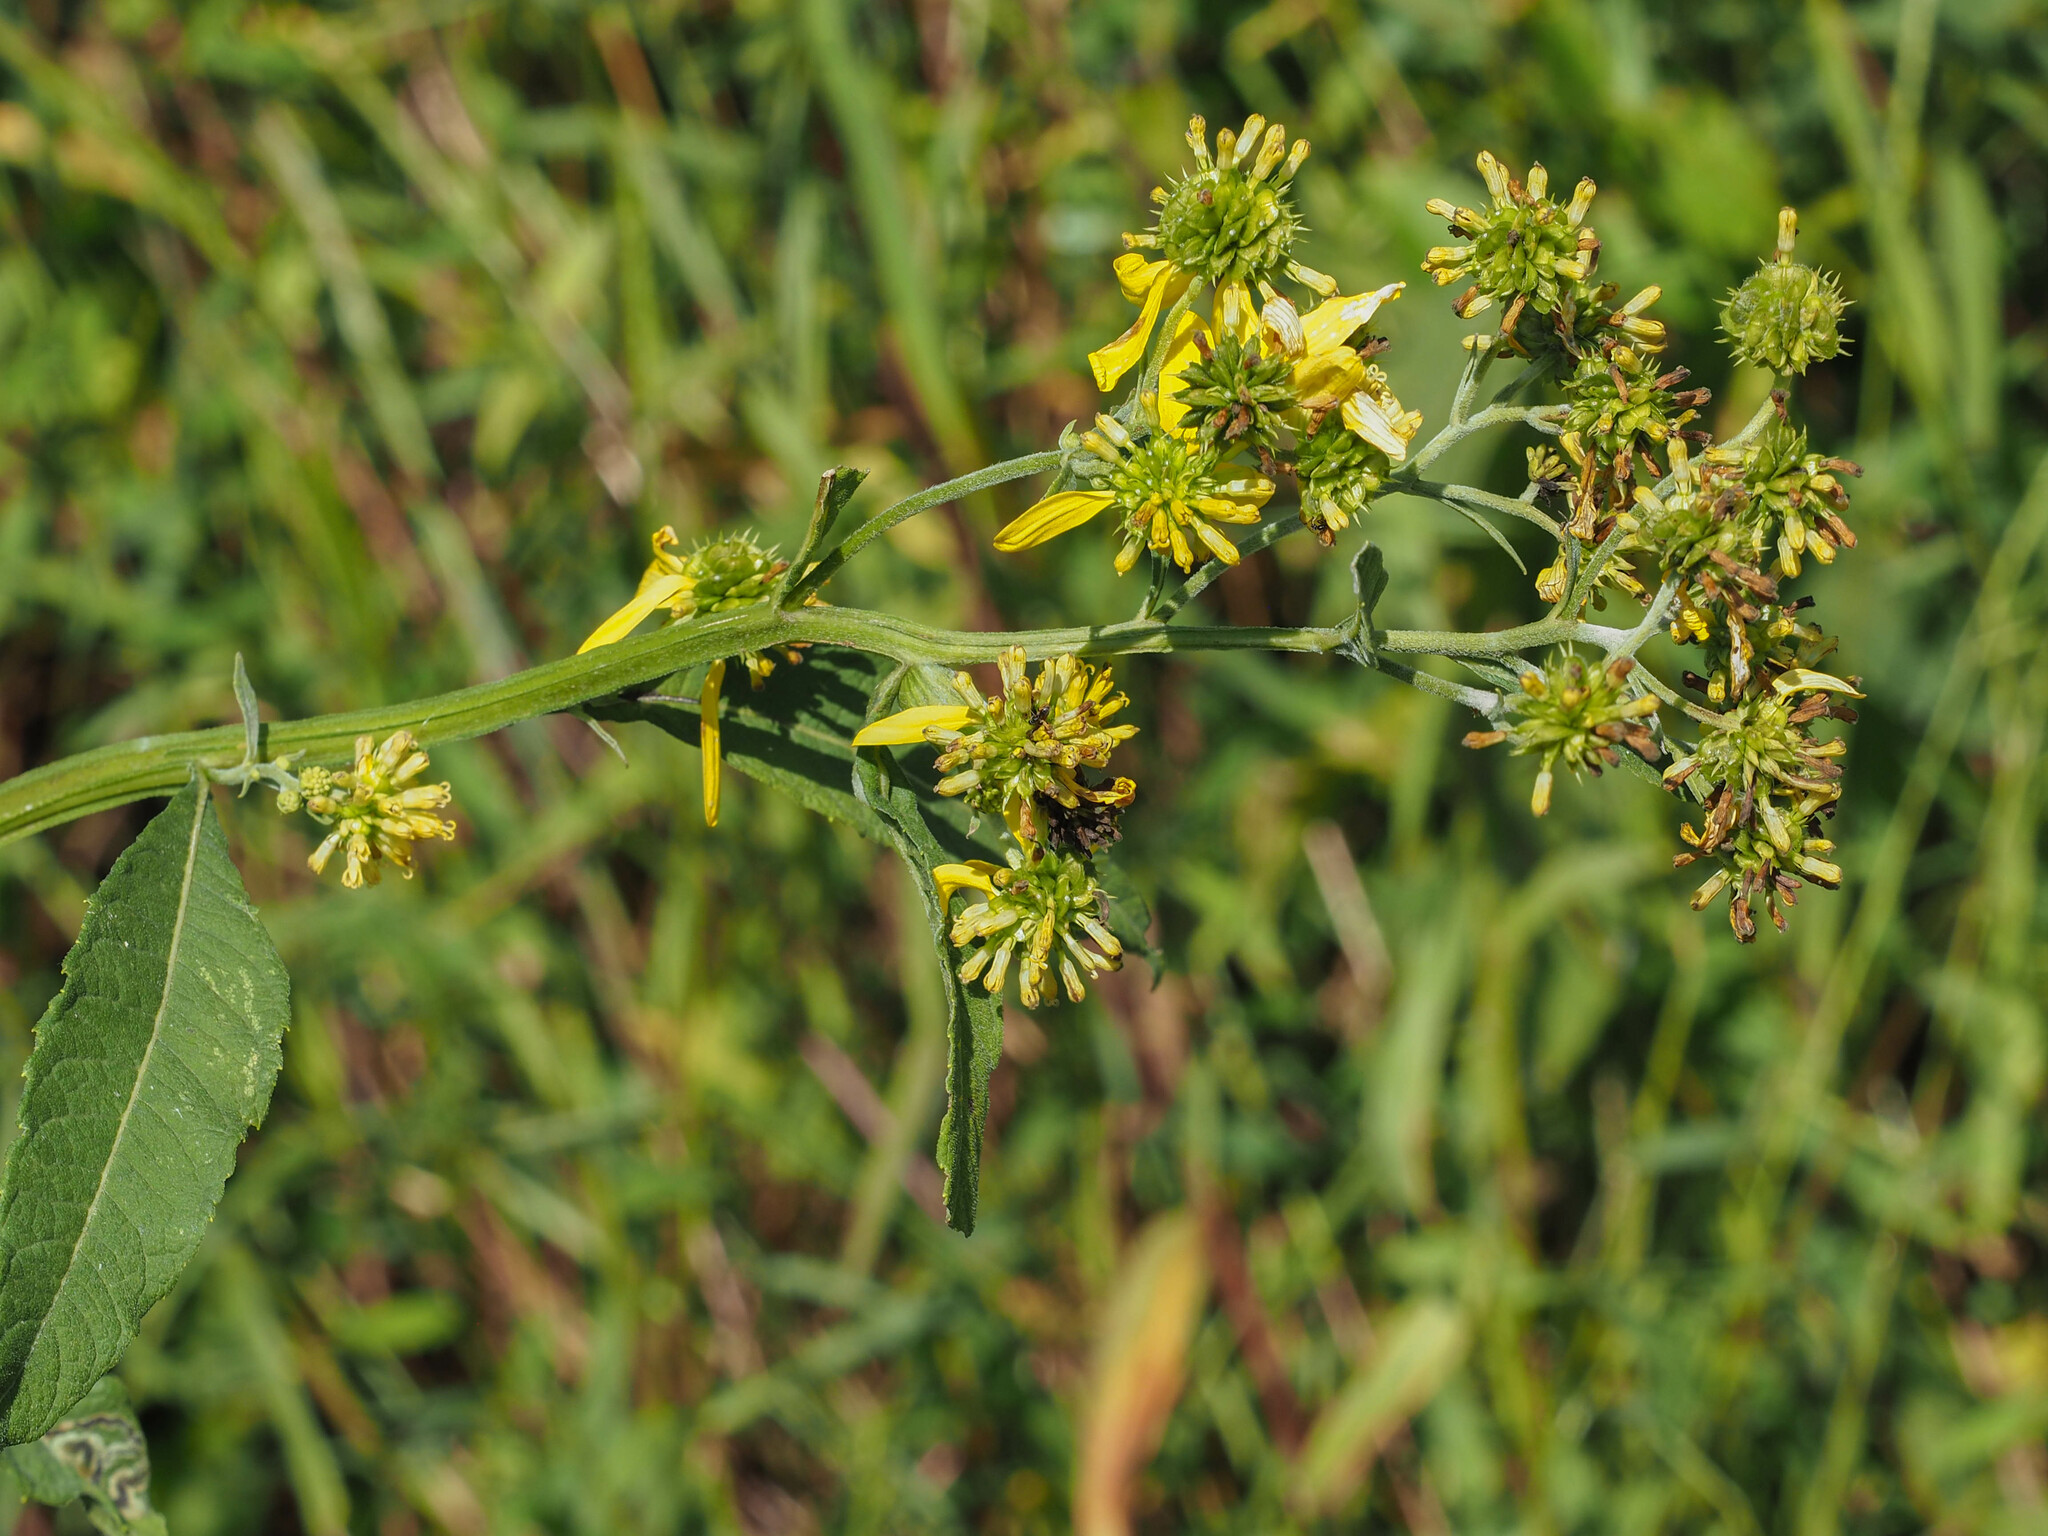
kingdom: Plantae
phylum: Tracheophyta
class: Magnoliopsida
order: Asterales
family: Asteraceae
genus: Verbesina
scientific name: Verbesina alternifolia
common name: Wingstem
